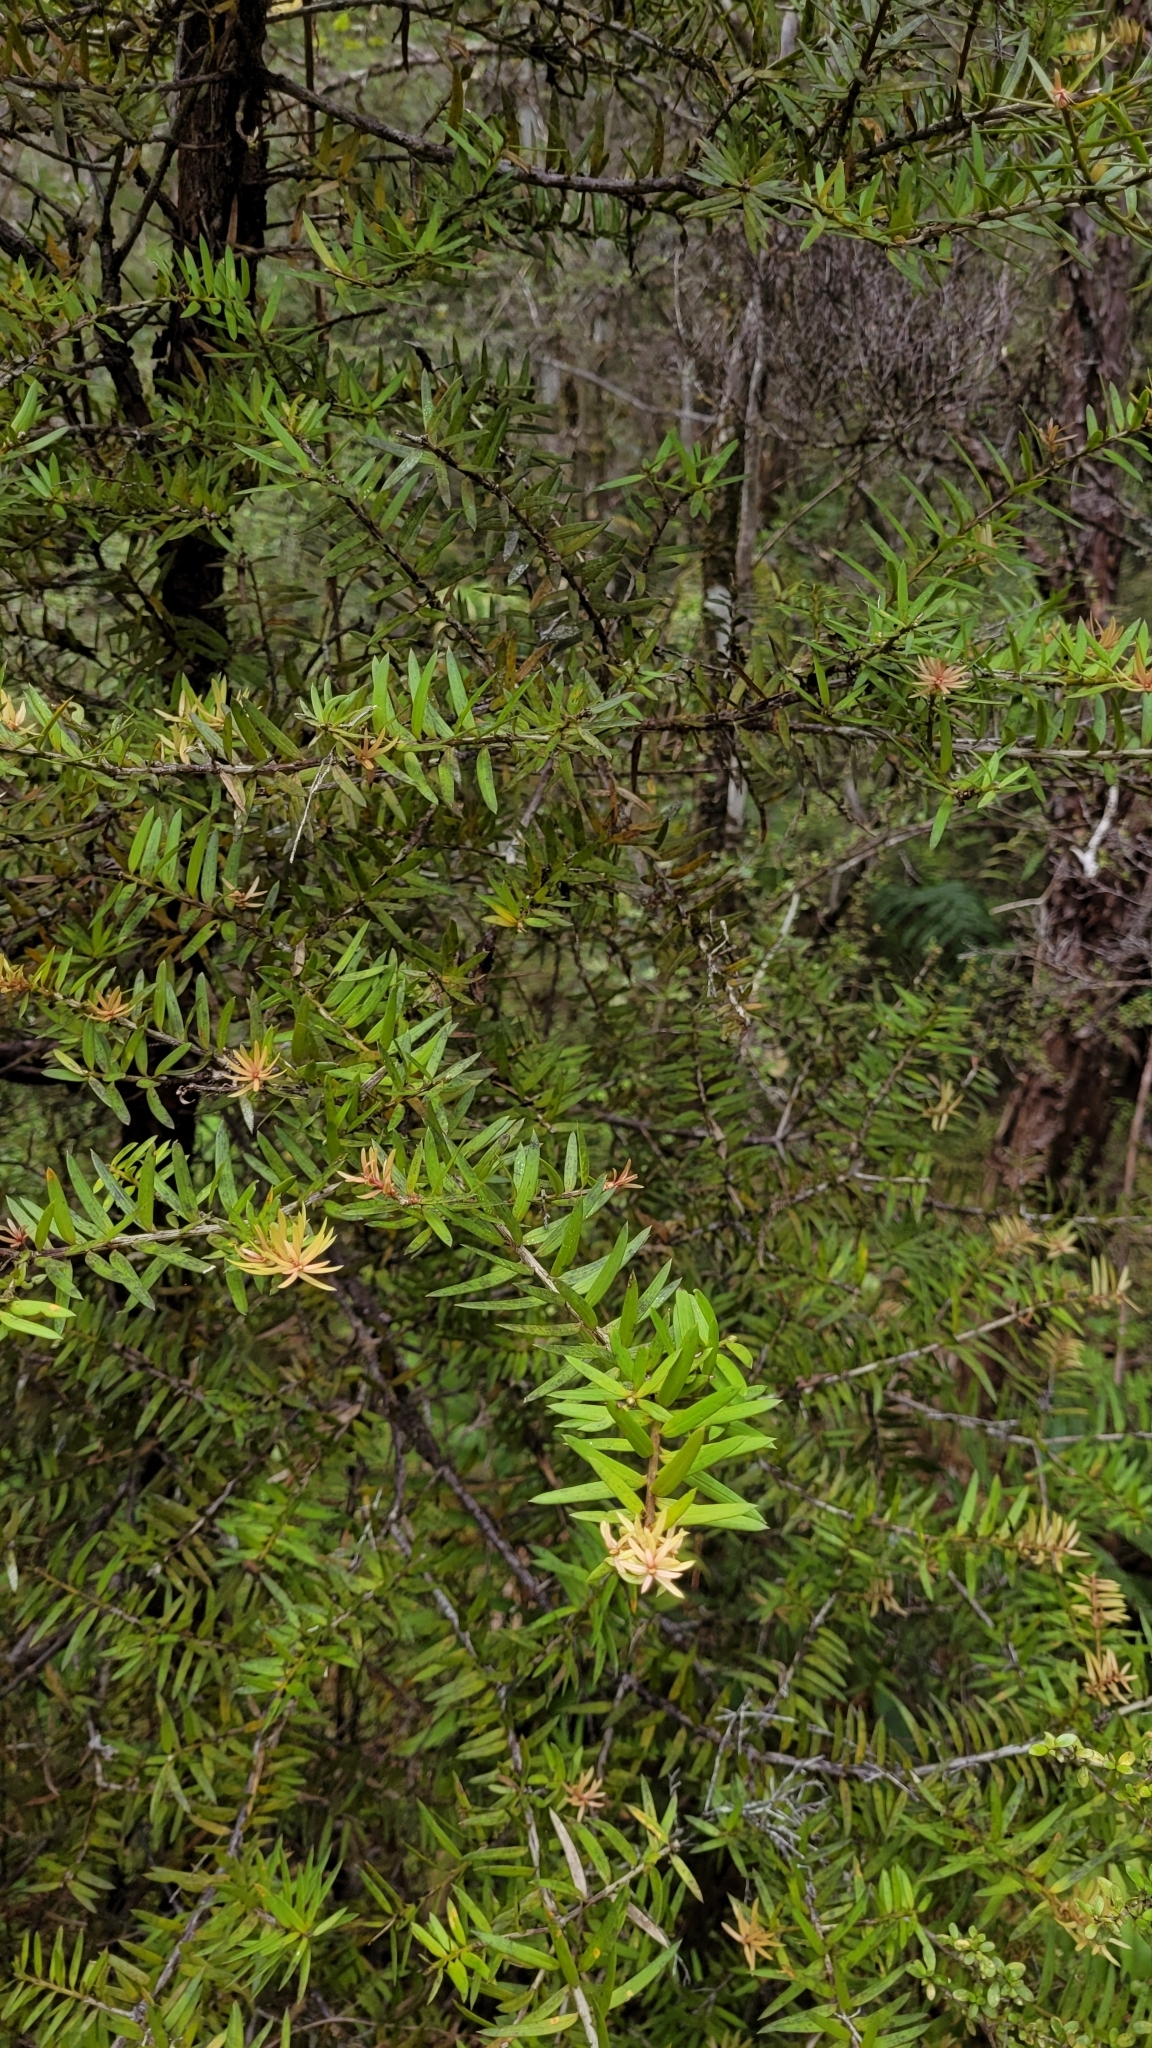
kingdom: Plantae
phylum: Tracheophyta
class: Pinopsida
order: Pinales
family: Podocarpaceae
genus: Podocarpus
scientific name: Podocarpus totara
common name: Totara
